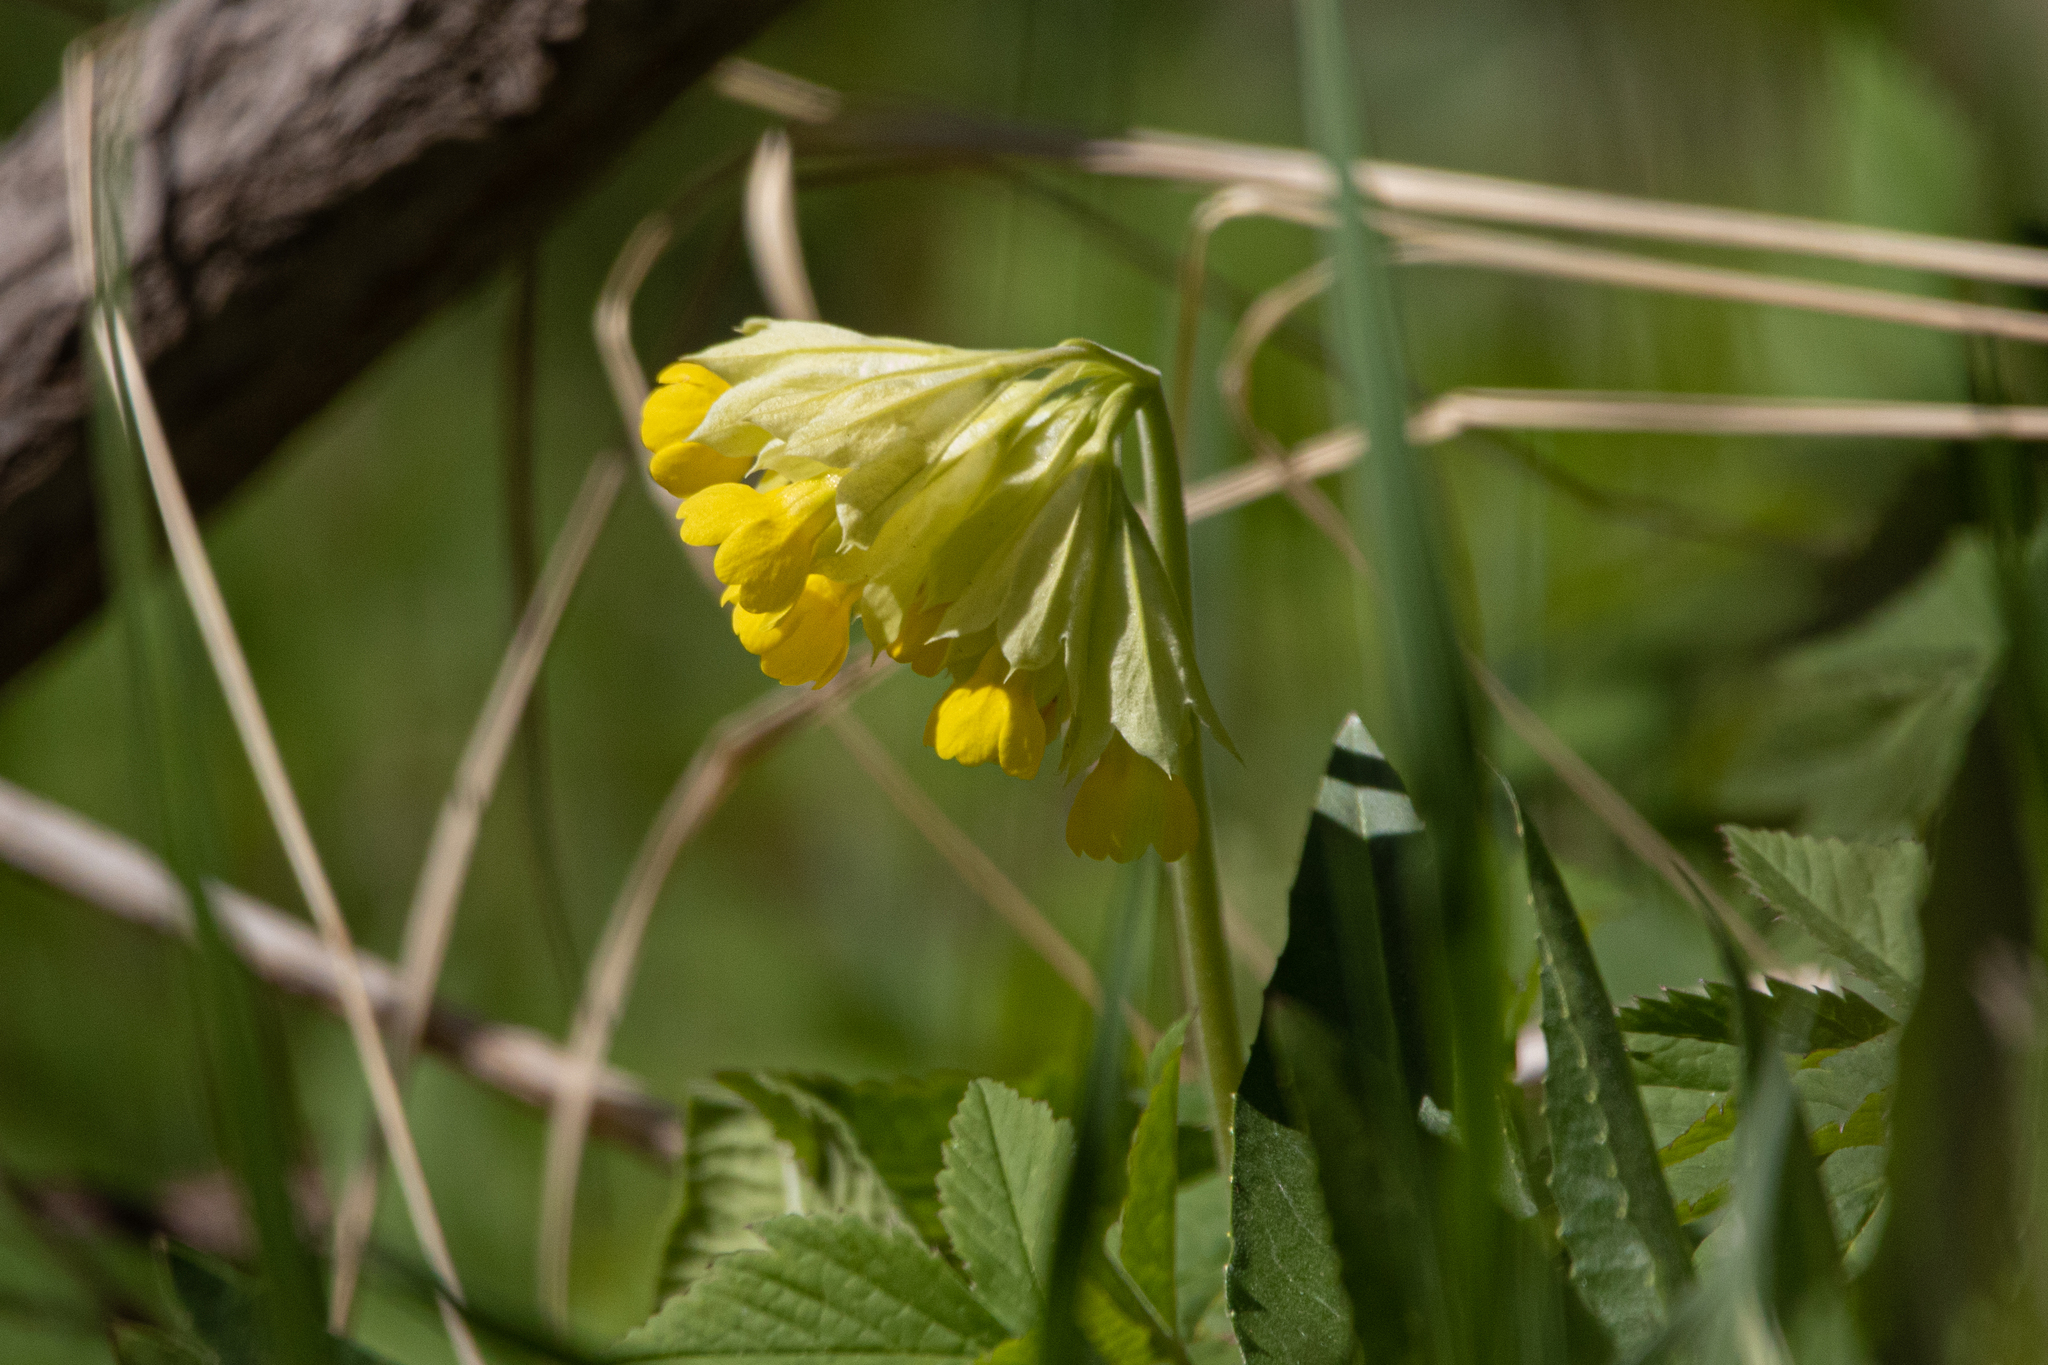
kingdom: Plantae
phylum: Tracheophyta
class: Magnoliopsida
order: Ericales
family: Primulaceae
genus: Primula
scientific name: Primula veris
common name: Cowslip
